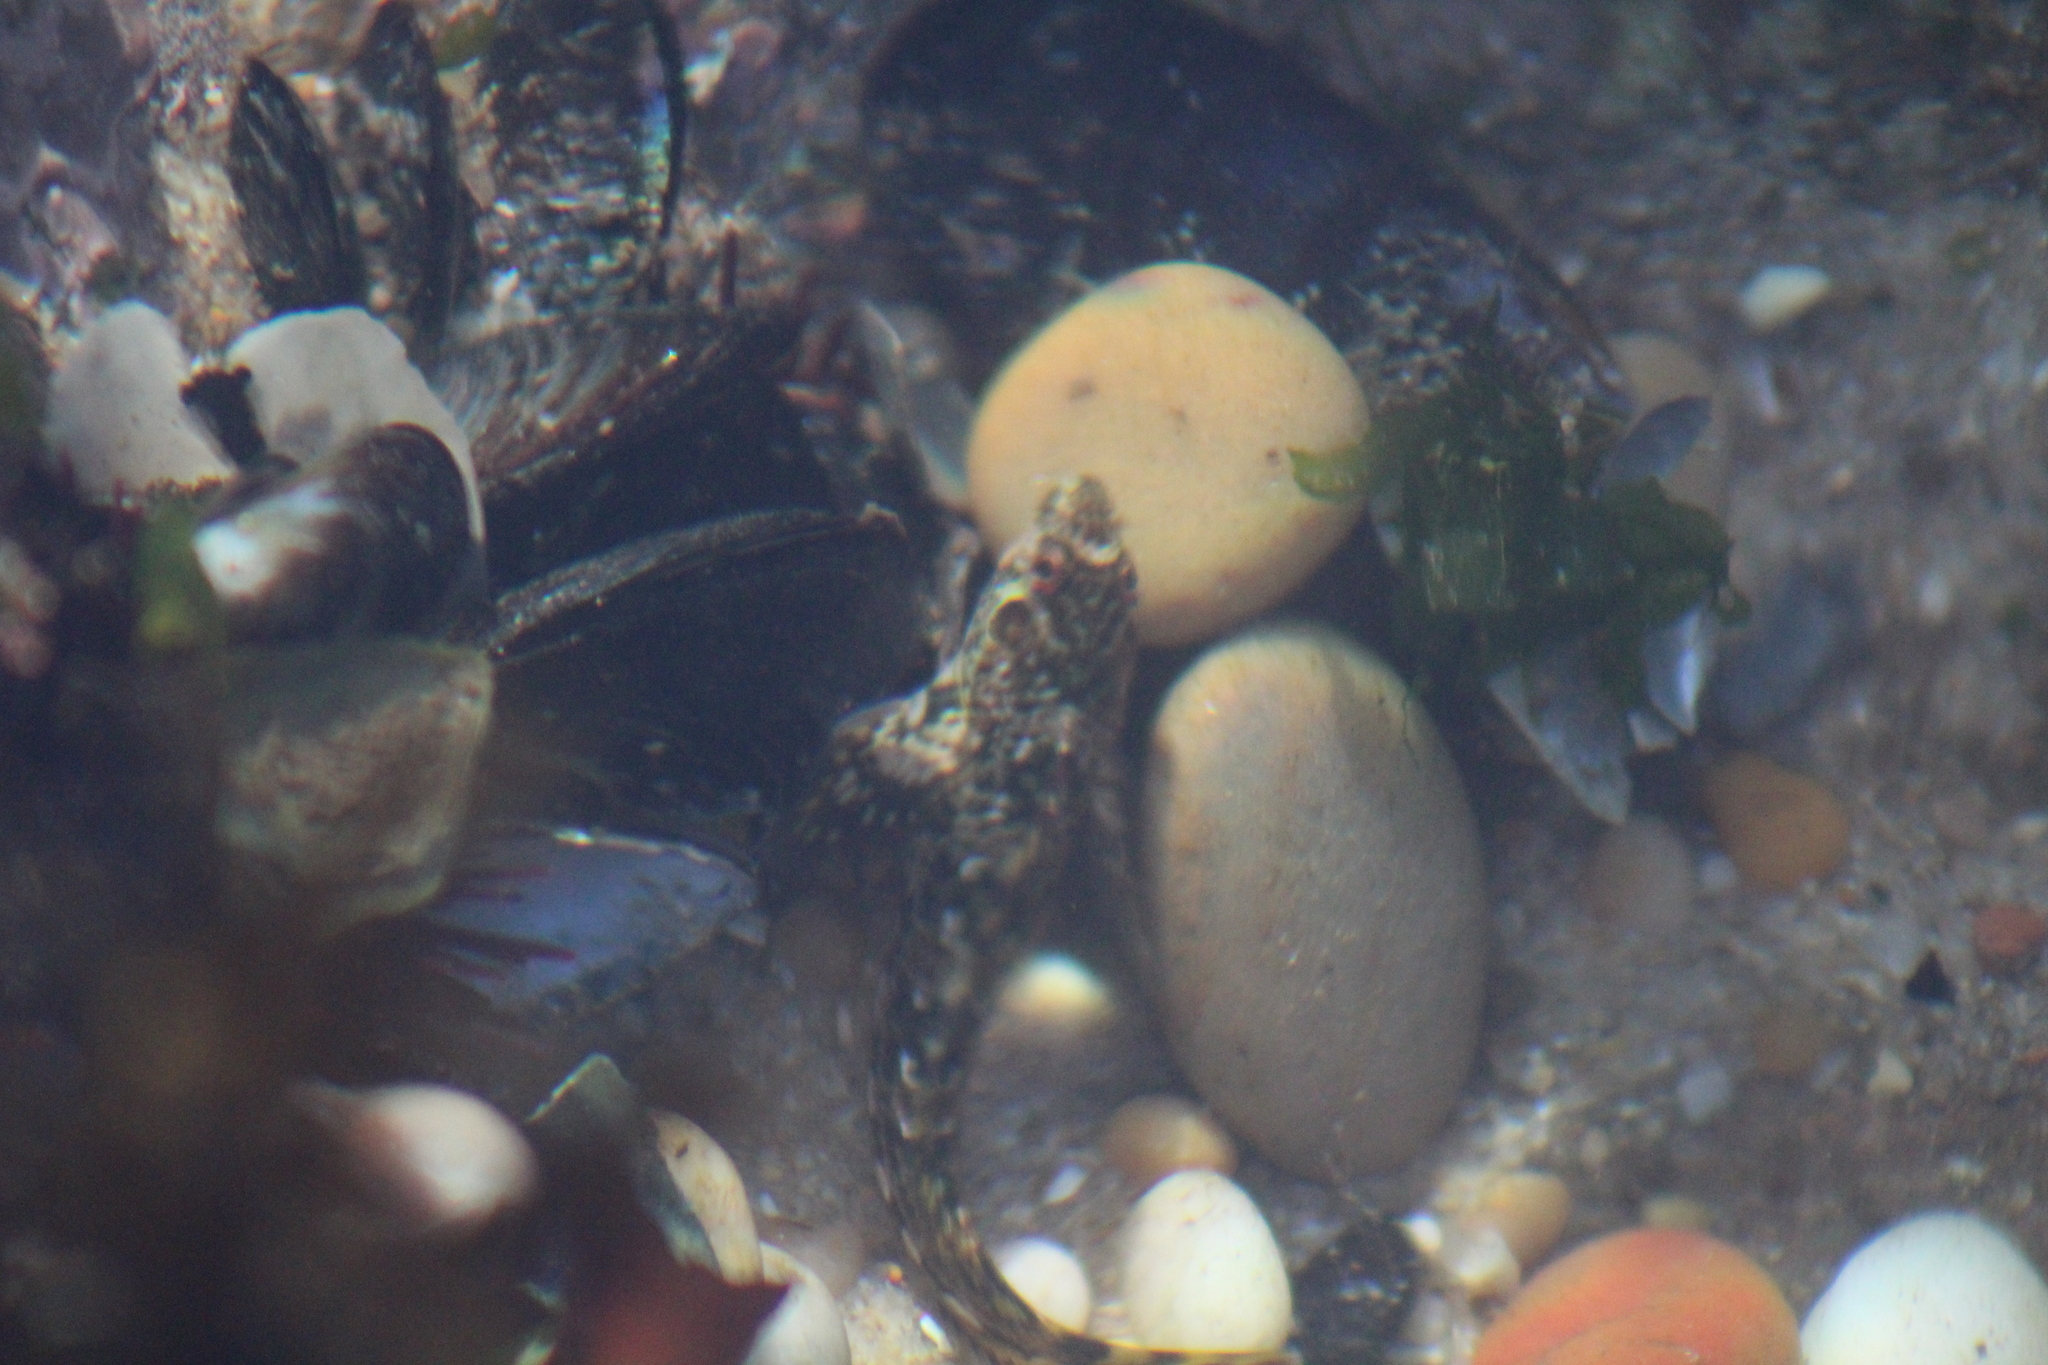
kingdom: Animalia
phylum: Chordata
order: Perciformes
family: Blenniidae
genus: Lipophrys
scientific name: Lipophrys pholis
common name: Shanny
